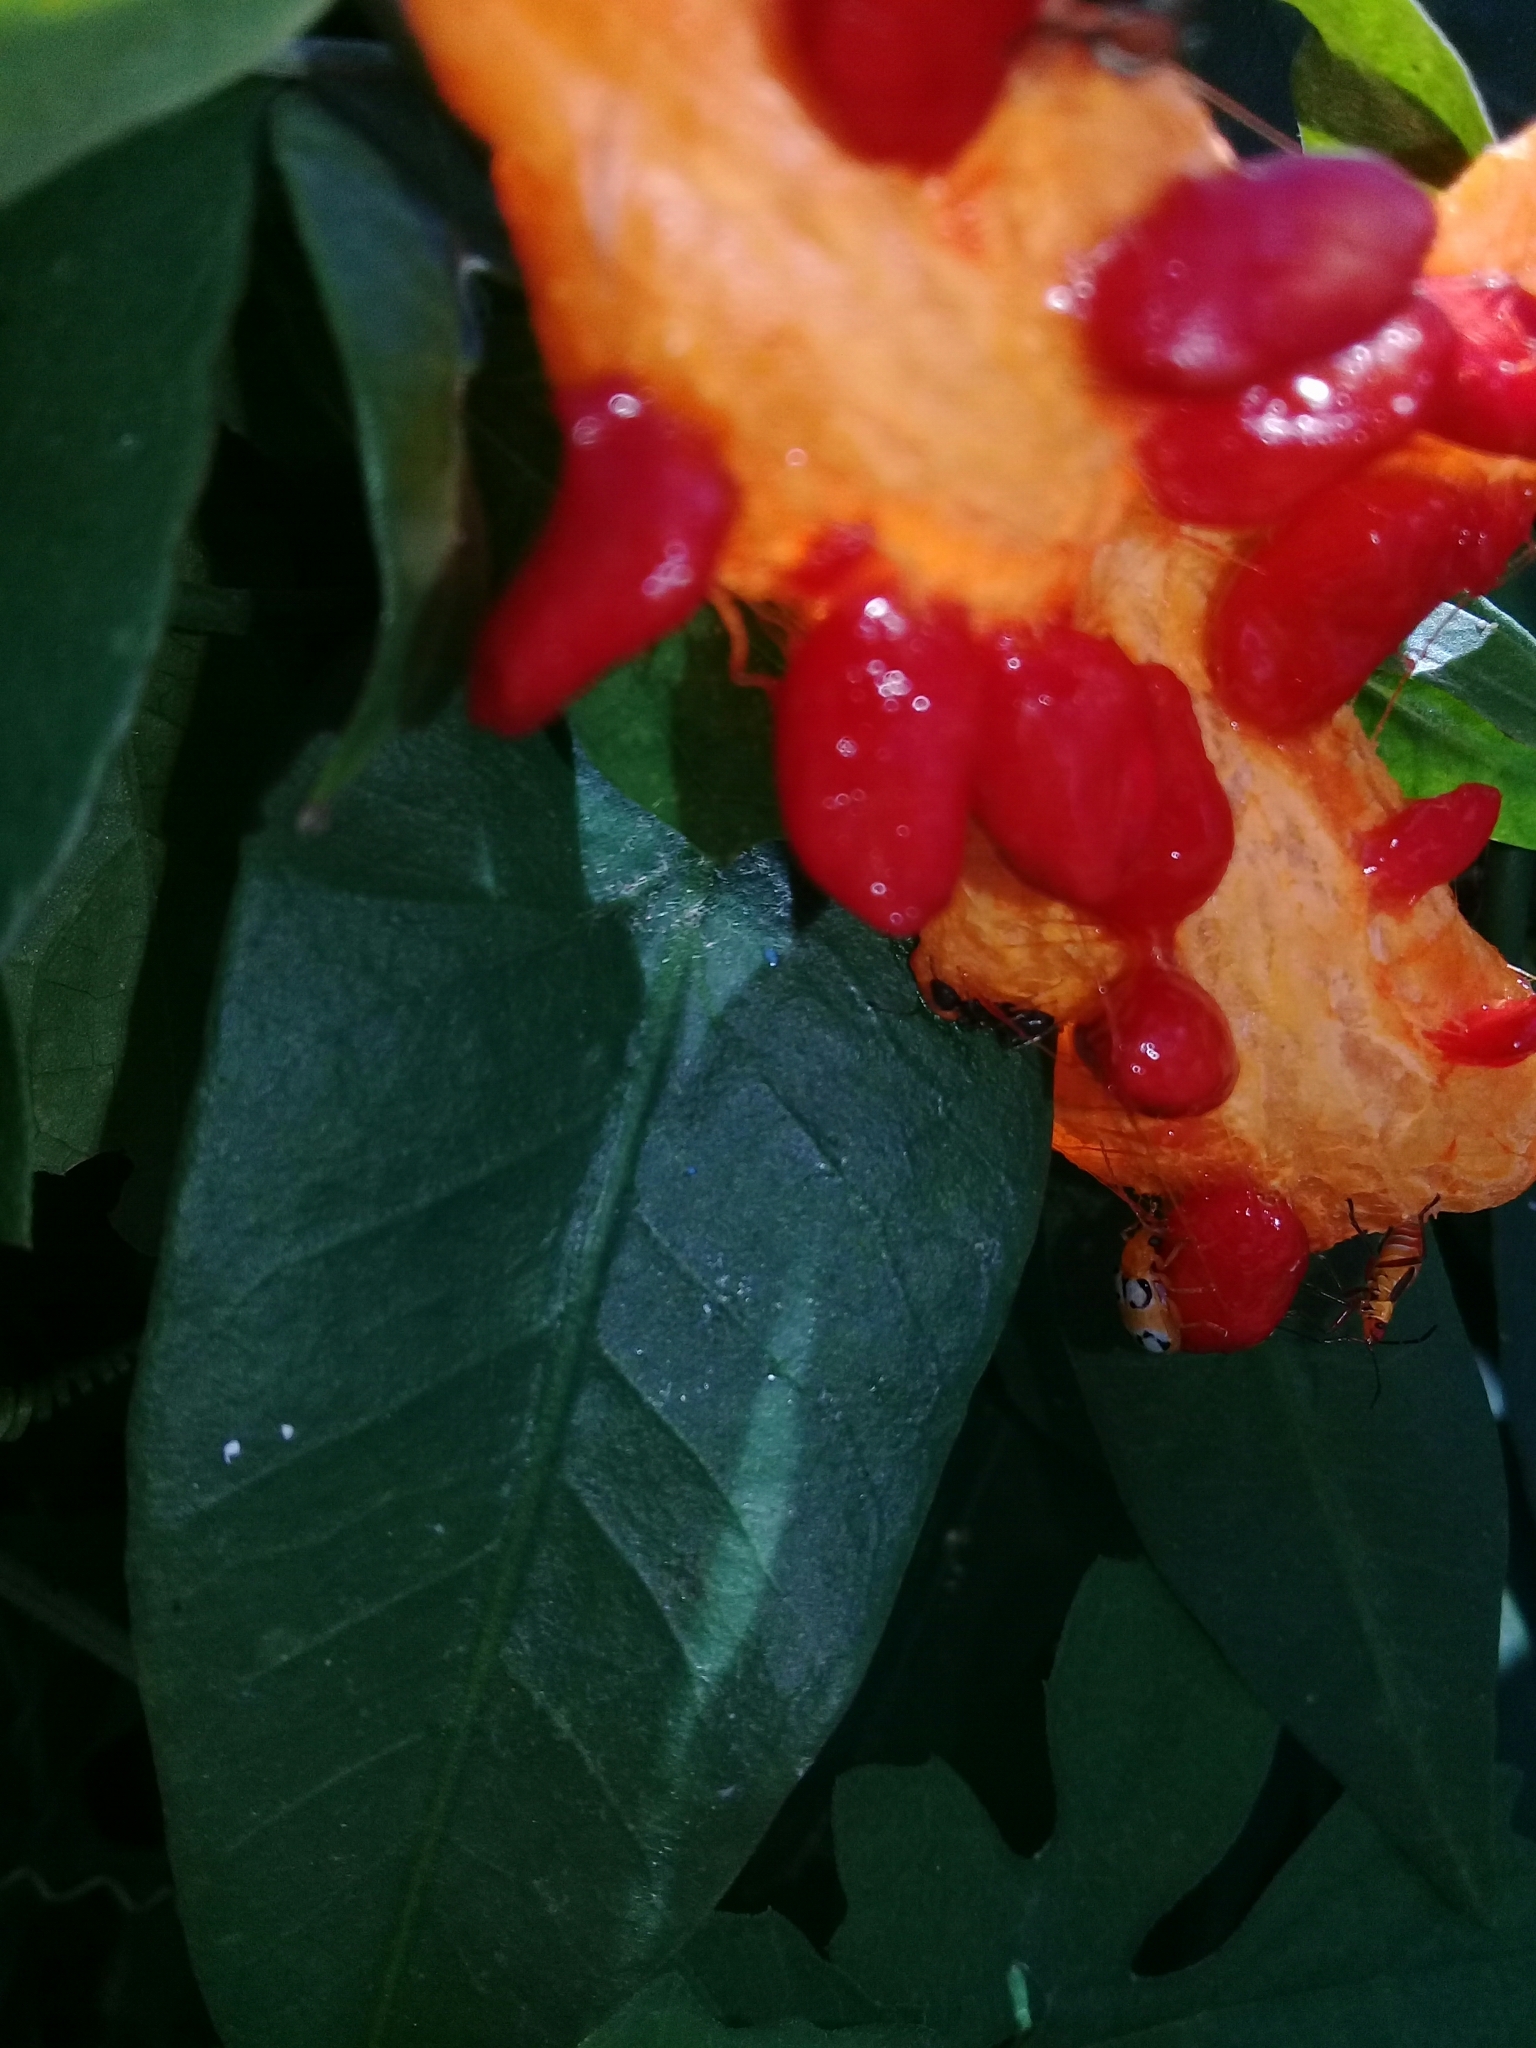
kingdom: Plantae
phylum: Tracheophyta
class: Magnoliopsida
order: Cucurbitales
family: Cucurbitaceae
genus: Momordica
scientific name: Momordica charantia
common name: Balsampear
